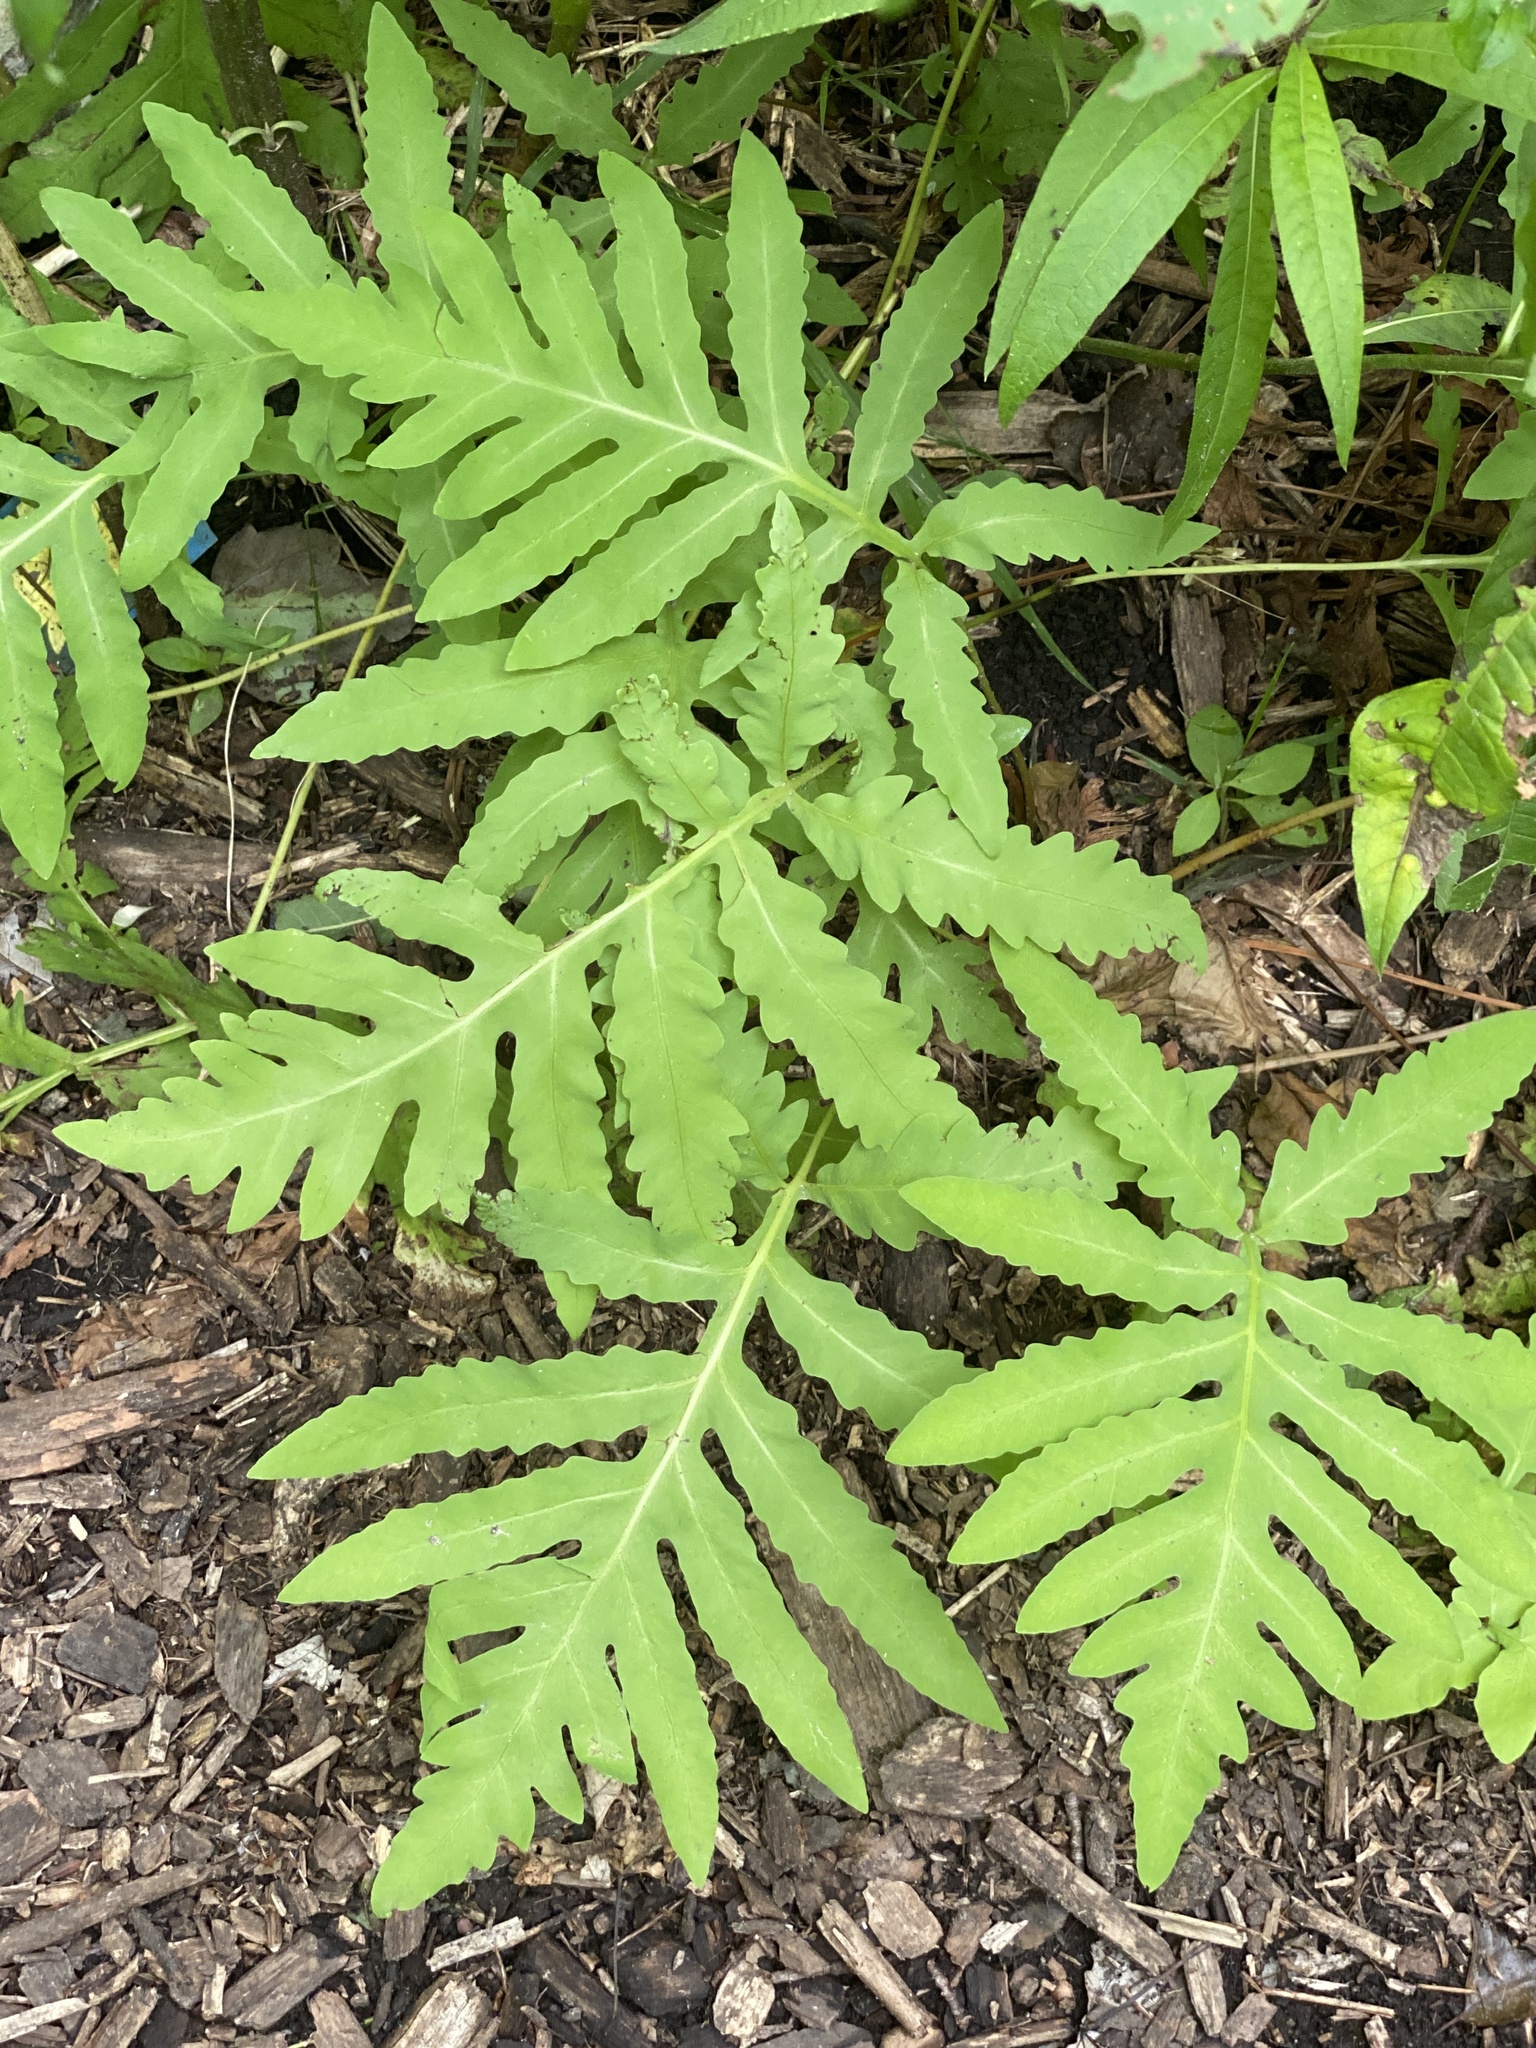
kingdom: Plantae
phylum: Tracheophyta
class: Polypodiopsida
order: Polypodiales
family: Onocleaceae
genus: Onoclea
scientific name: Onoclea sensibilis
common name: Sensitive fern
